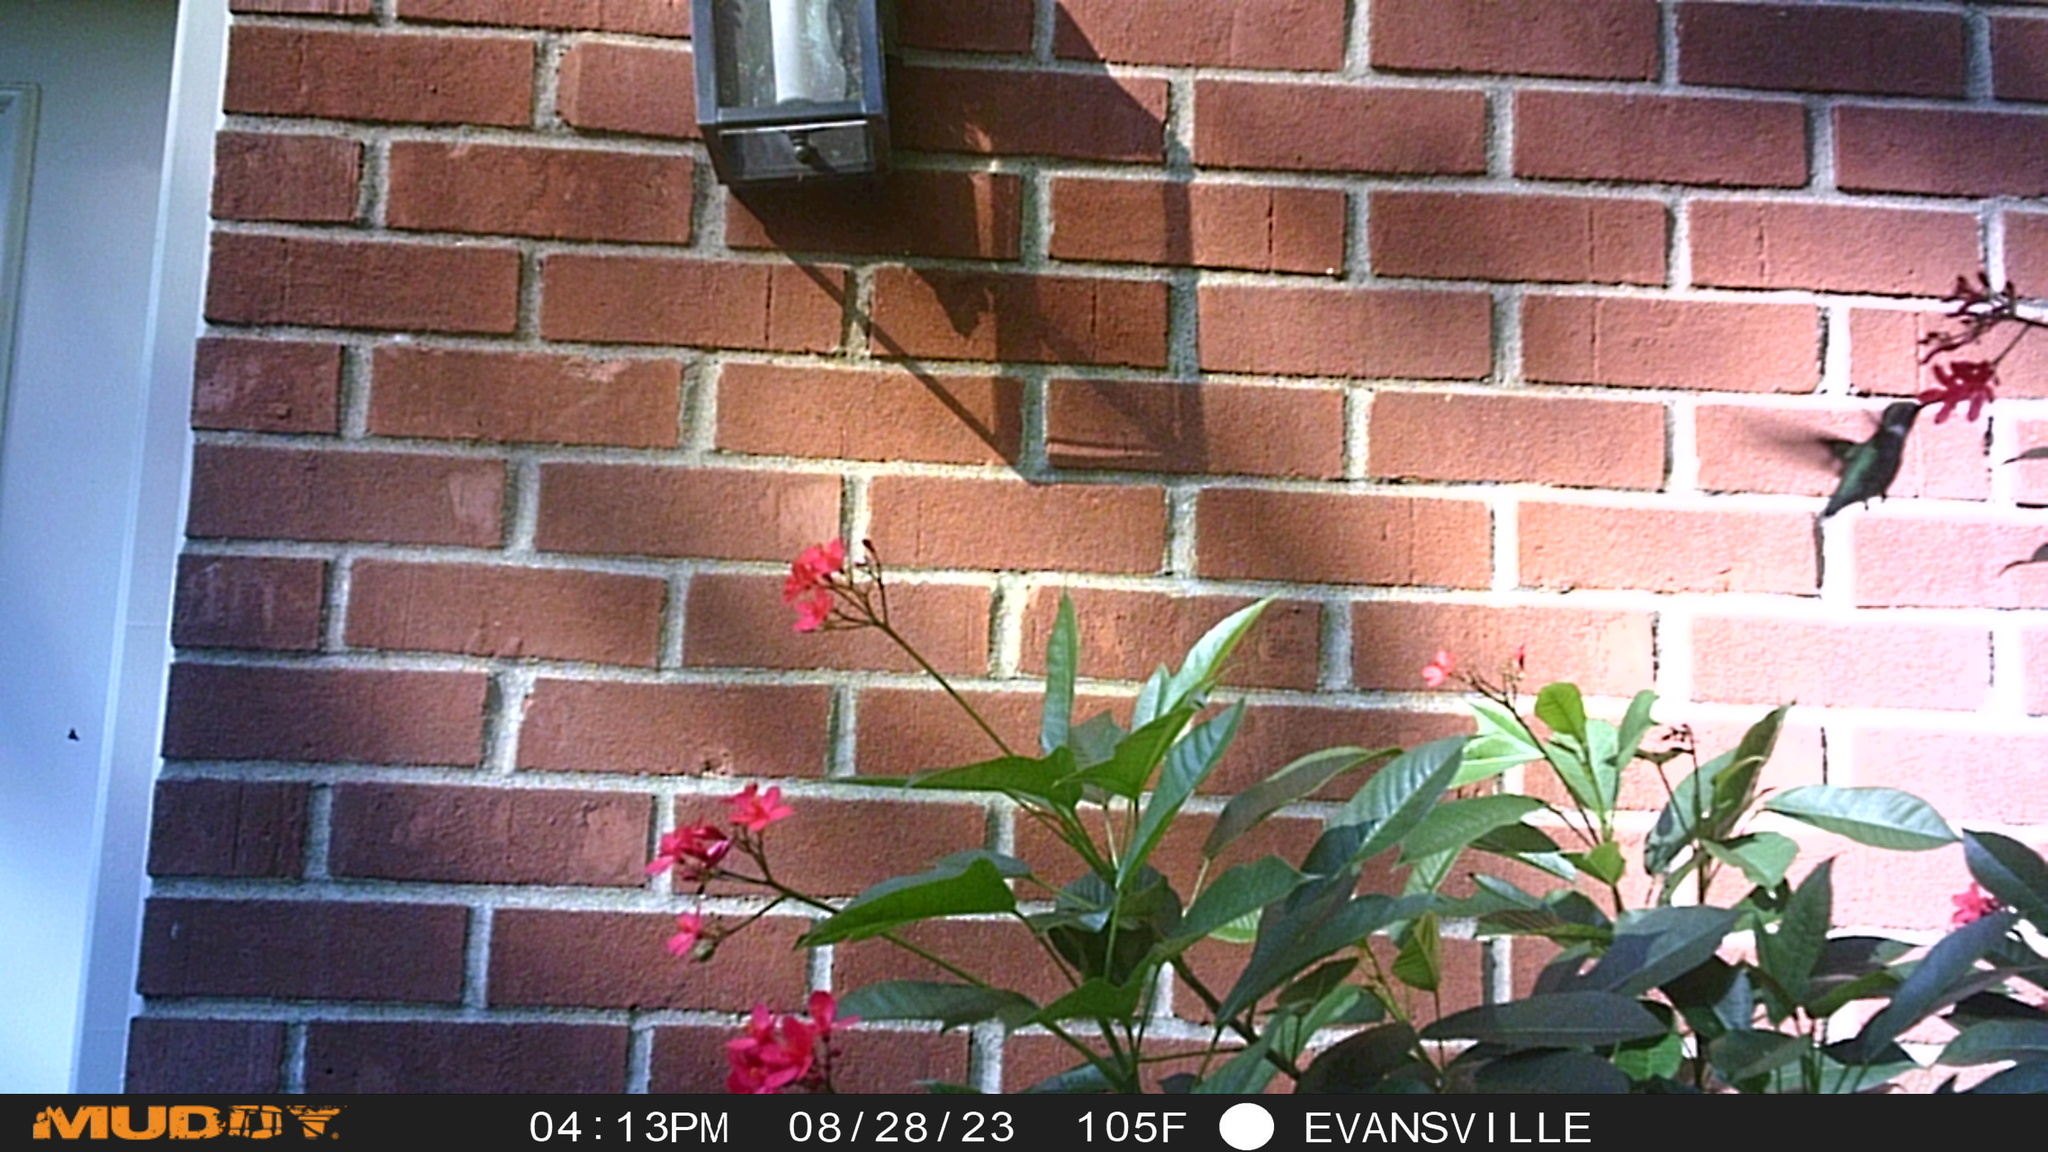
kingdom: Animalia
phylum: Chordata
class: Aves
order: Apodiformes
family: Trochilidae
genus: Archilochus
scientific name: Archilochus colubris
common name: Ruby-throated hummingbird
